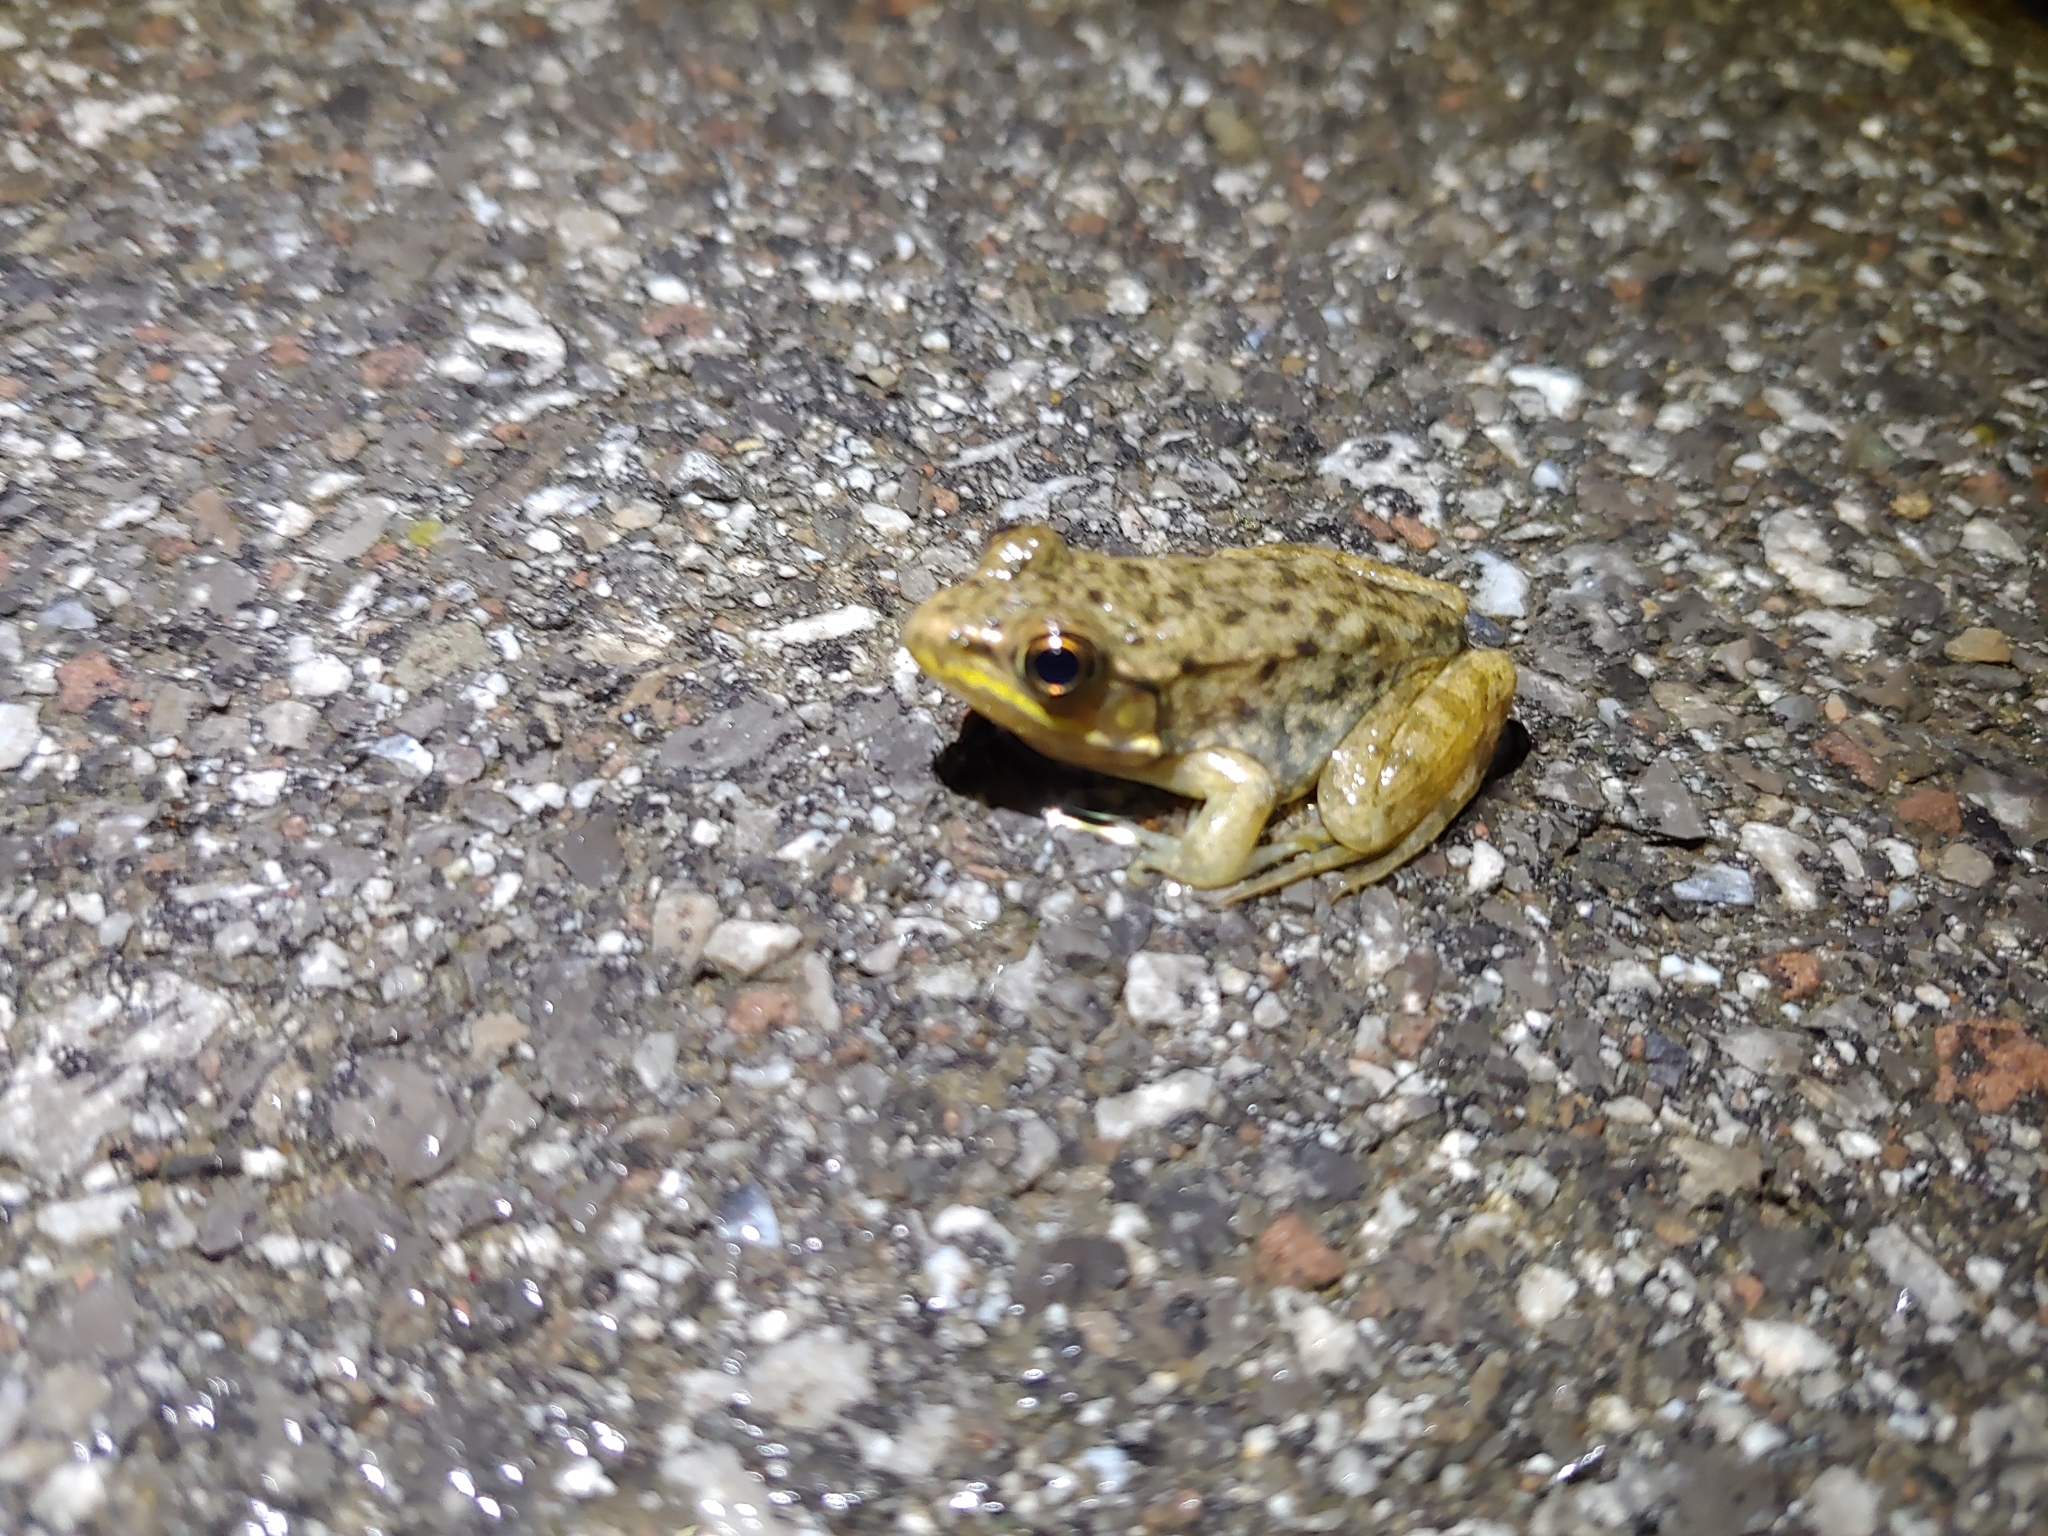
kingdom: Animalia
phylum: Chordata
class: Amphibia
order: Anura
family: Ranidae
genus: Lithobates
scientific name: Lithobates clamitans
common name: Green frog
